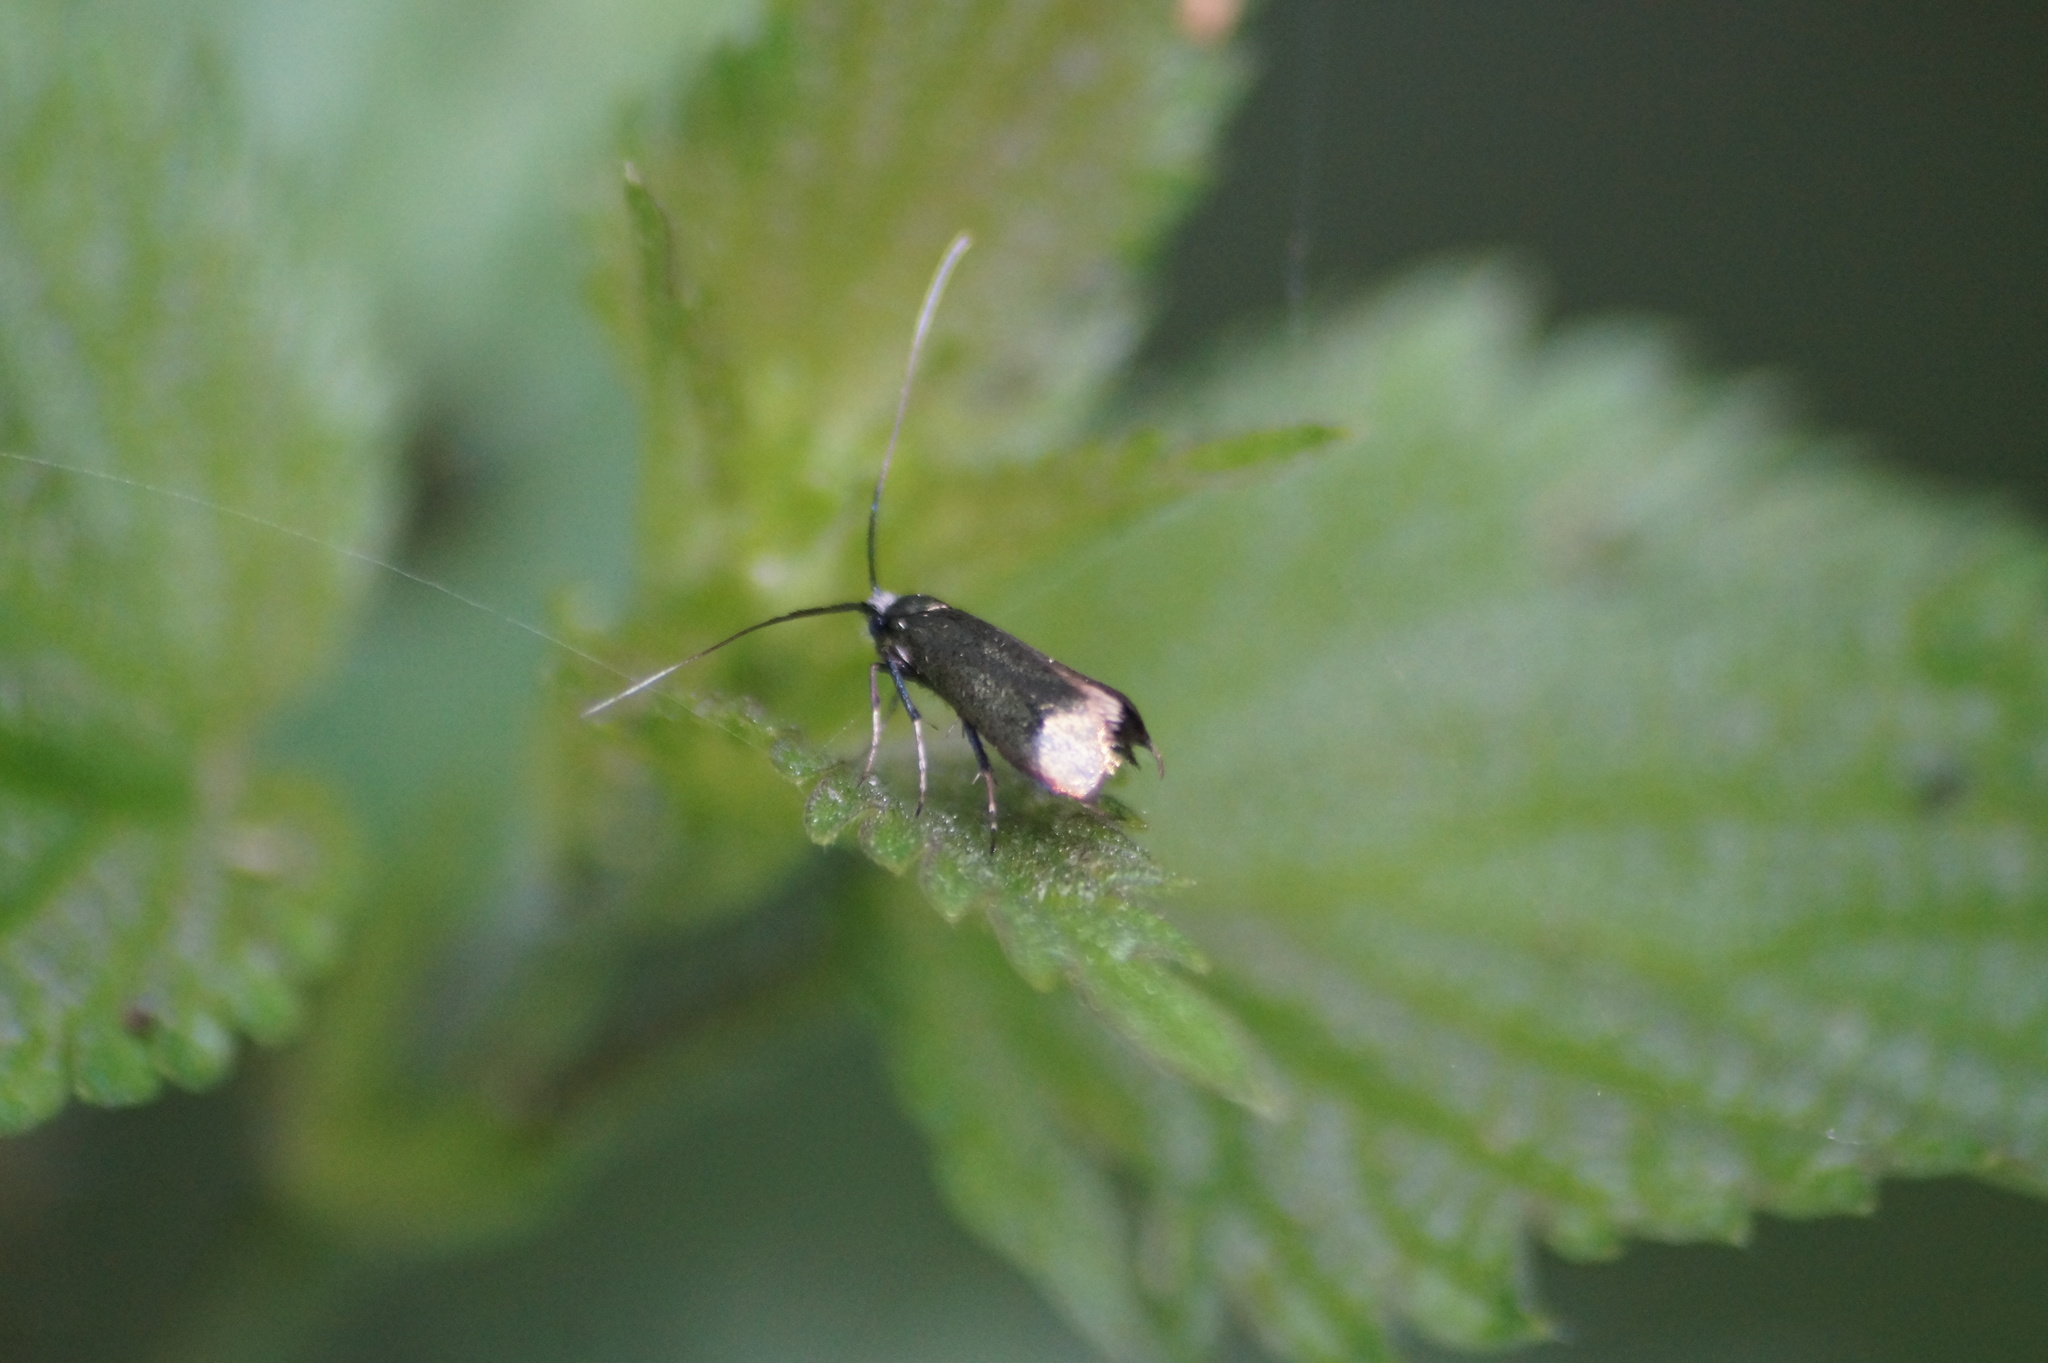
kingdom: Animalia
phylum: Arthropoda
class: Insecta
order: Lepidoptera
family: Adelidae
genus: Adela
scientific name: Adela viridella
